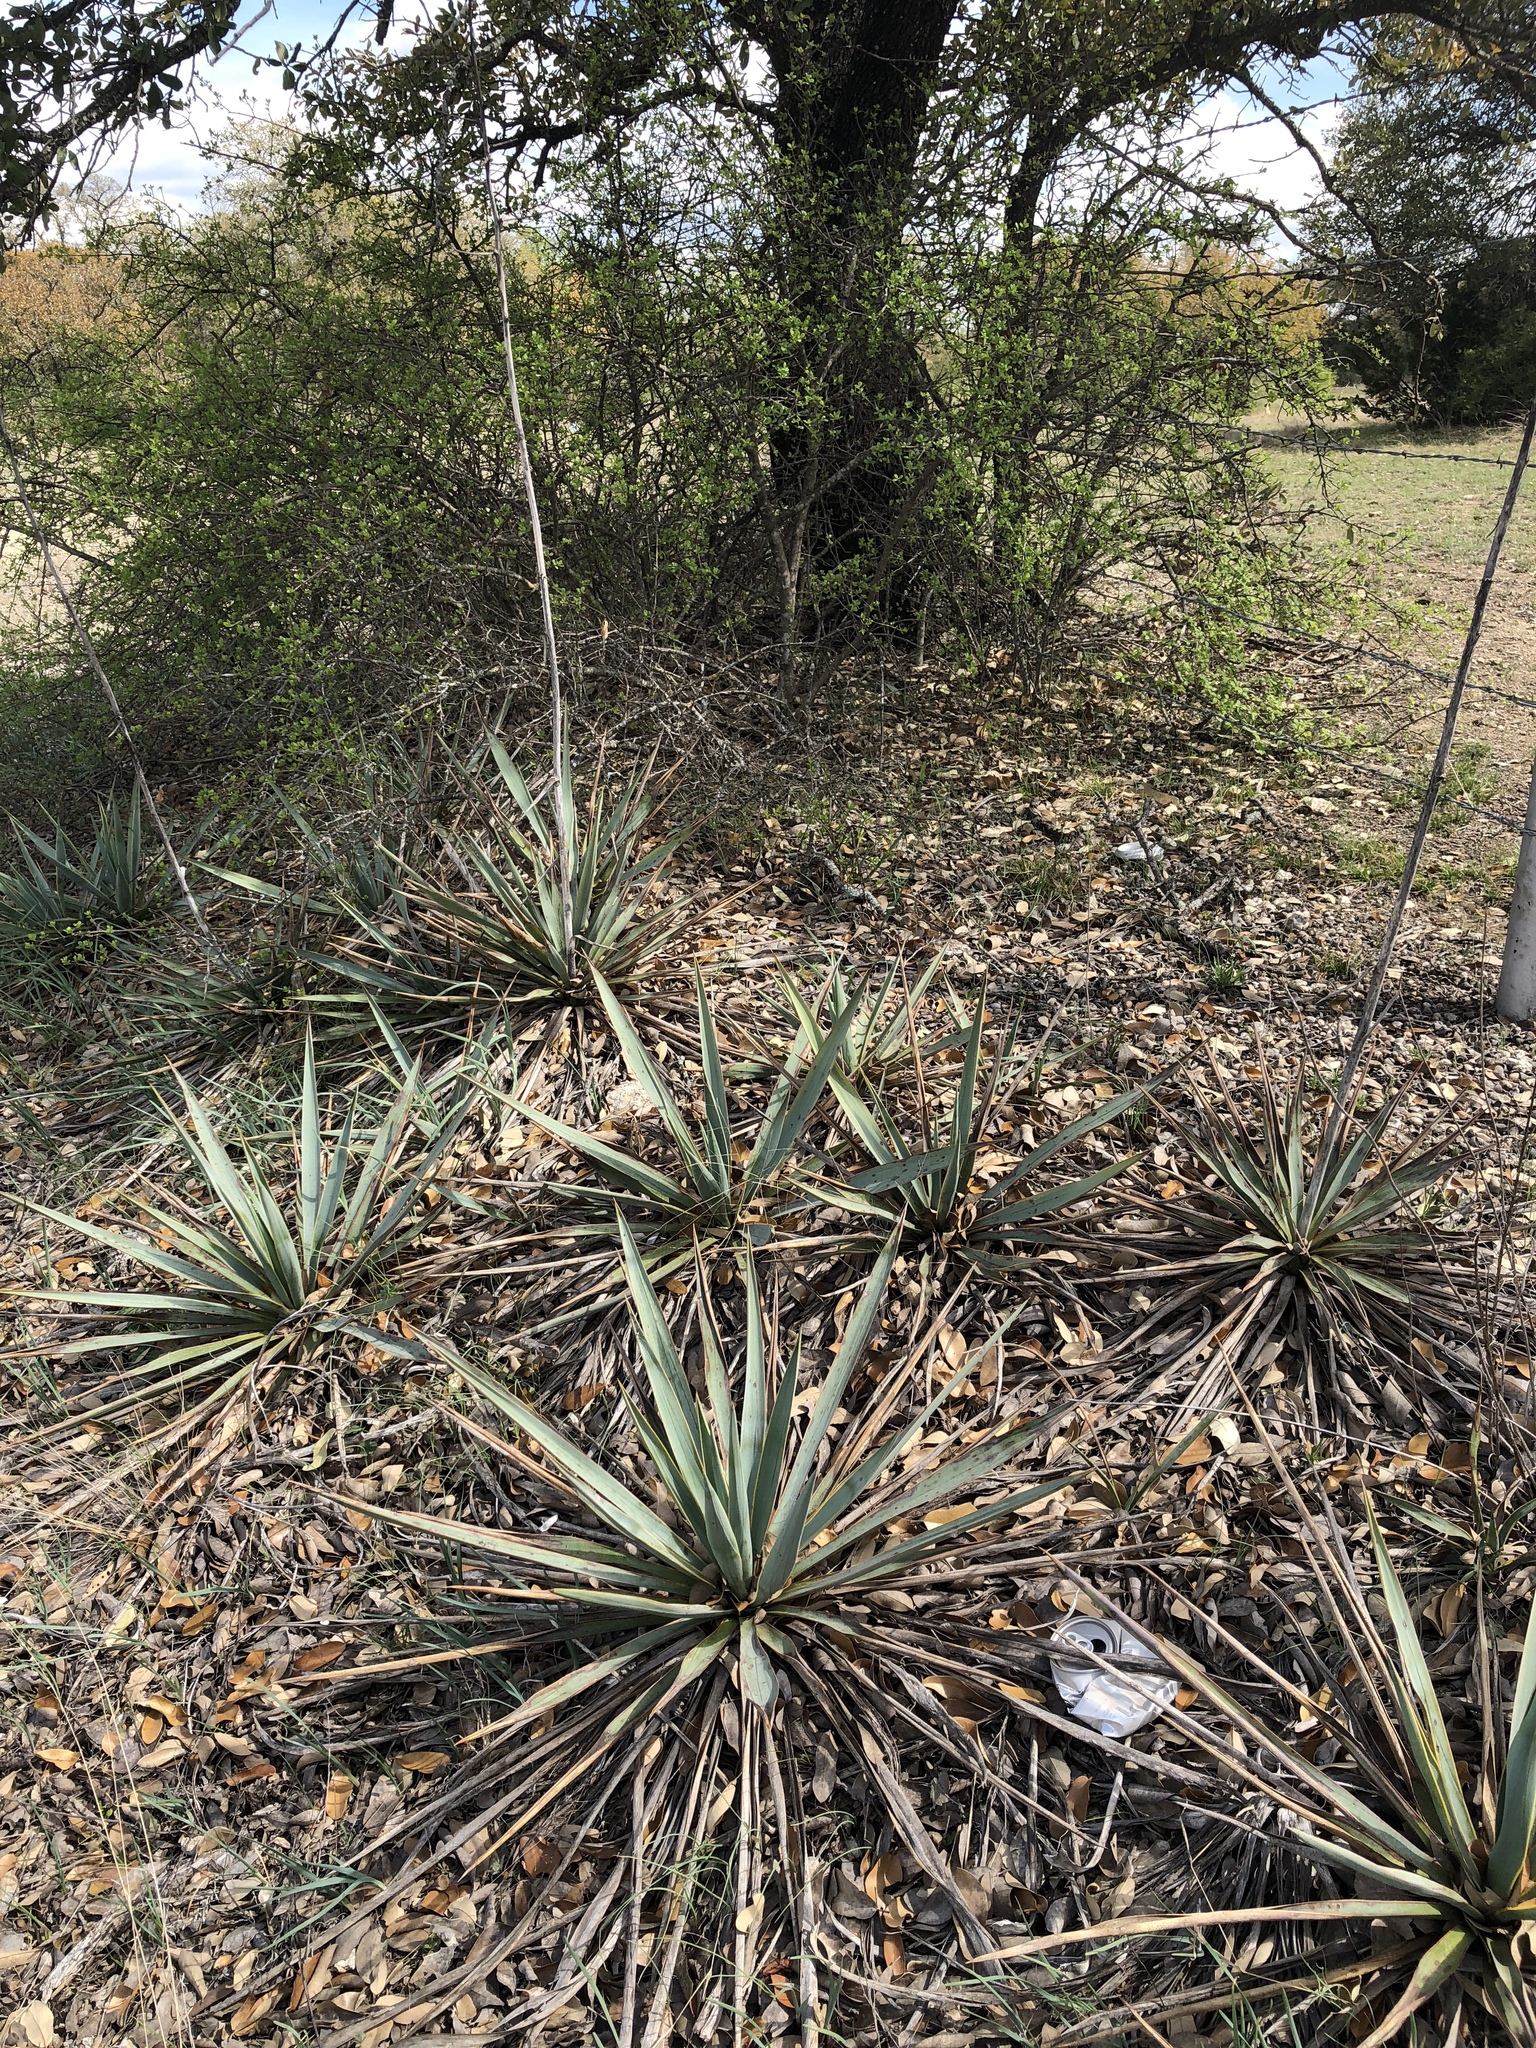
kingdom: Plantae
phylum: Tracheophyta
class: Liliopsida
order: Asparagales
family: Asparagaceae
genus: Yucca
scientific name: Yucca pallida
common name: Pale leaf yucca
